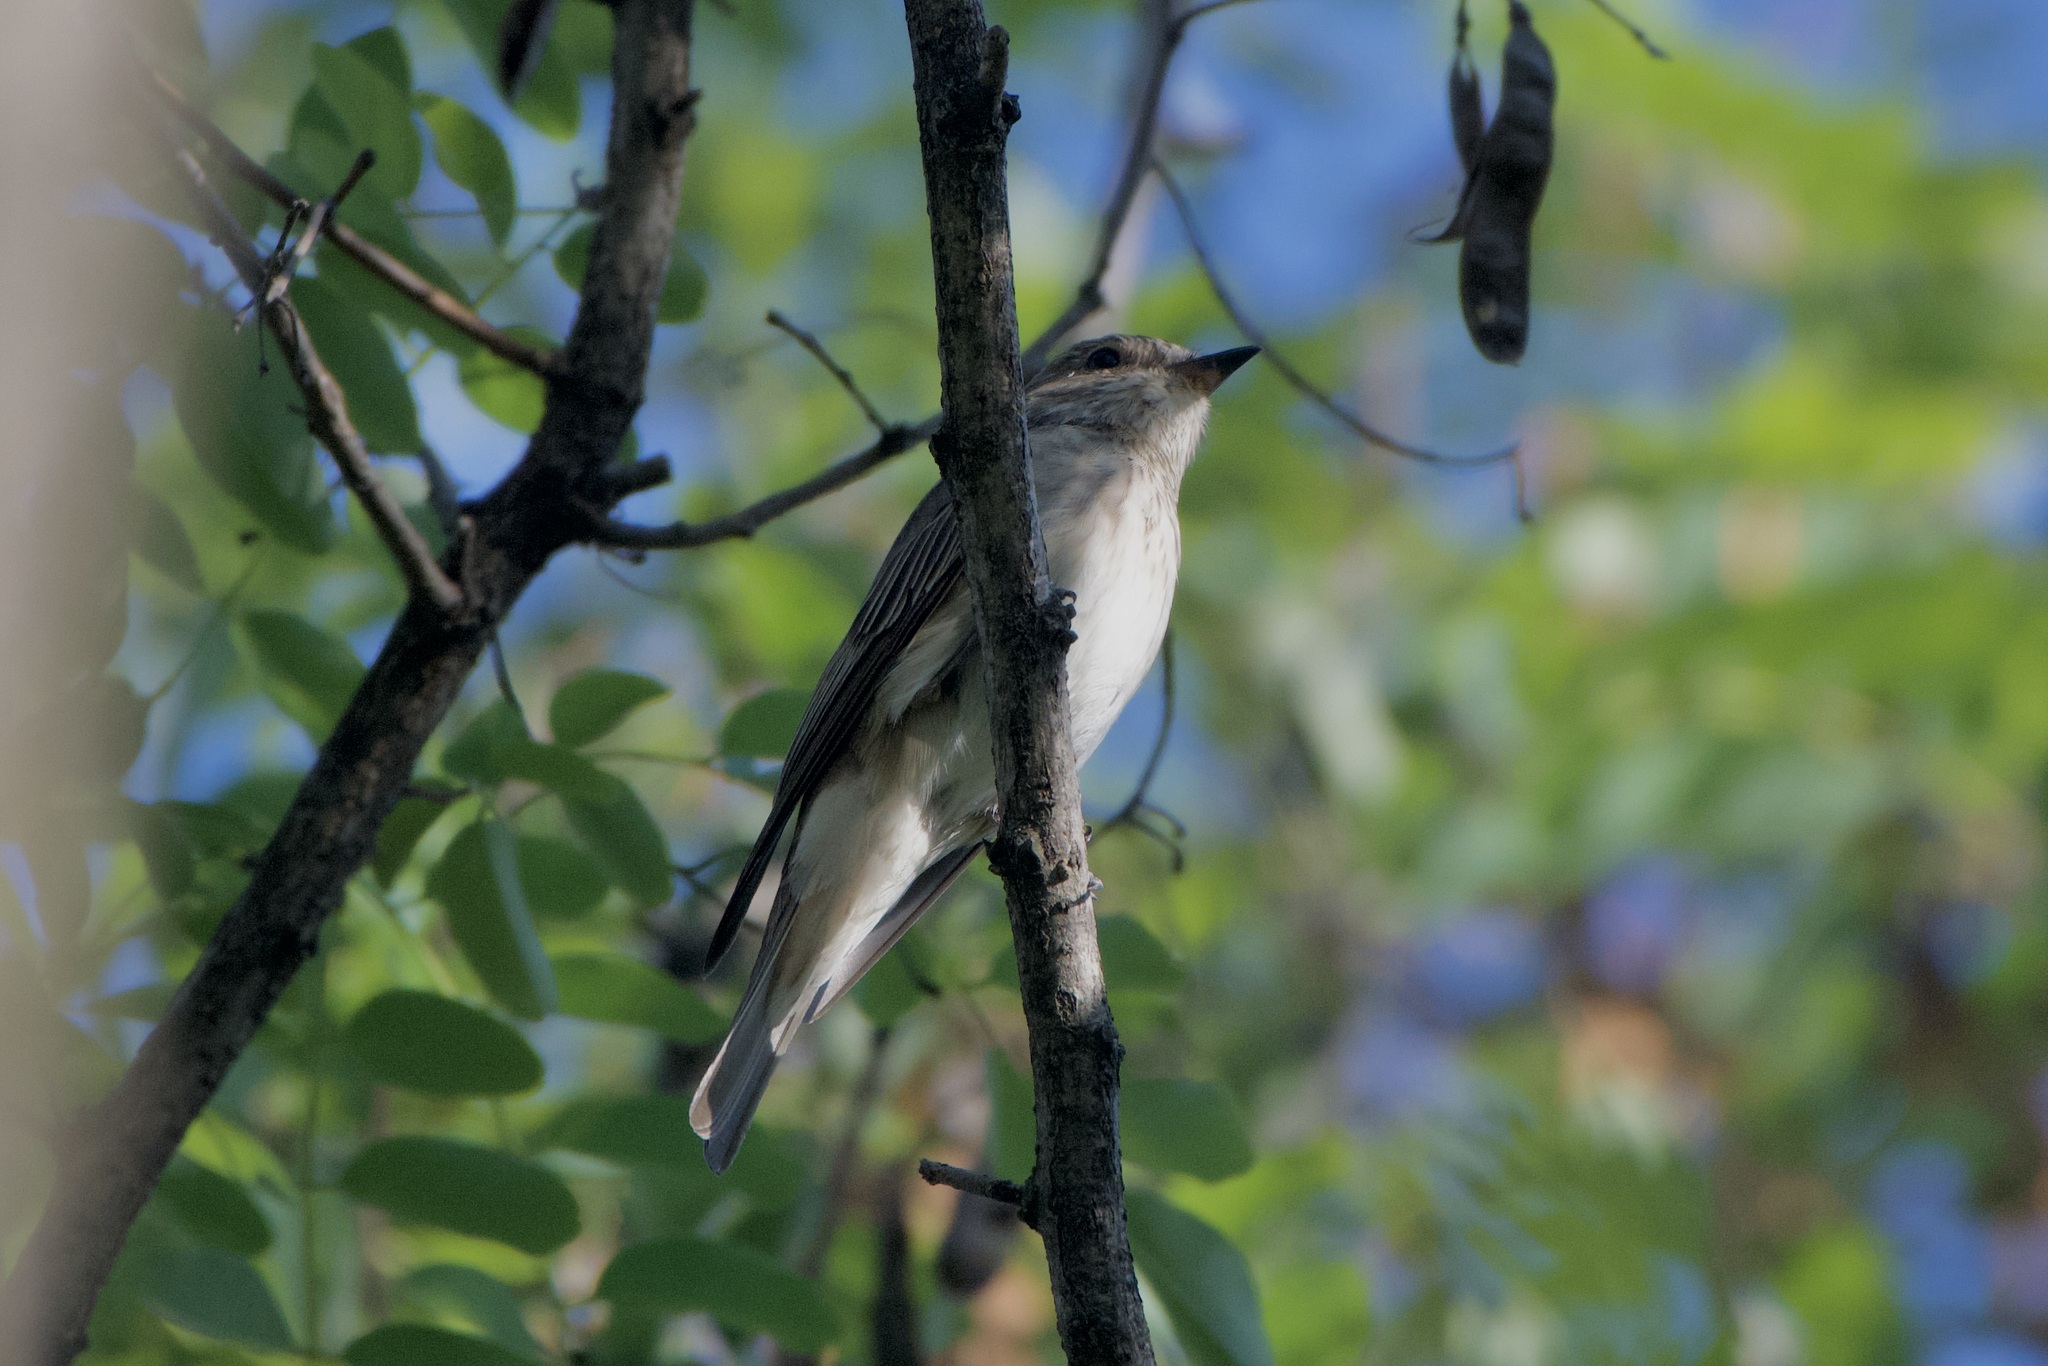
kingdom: Animalia
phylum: Chordata
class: Aves
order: Passeriformes
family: Muscicapidae
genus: Muscicapa
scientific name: Muscicapa striata
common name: Spotted flycatcher
